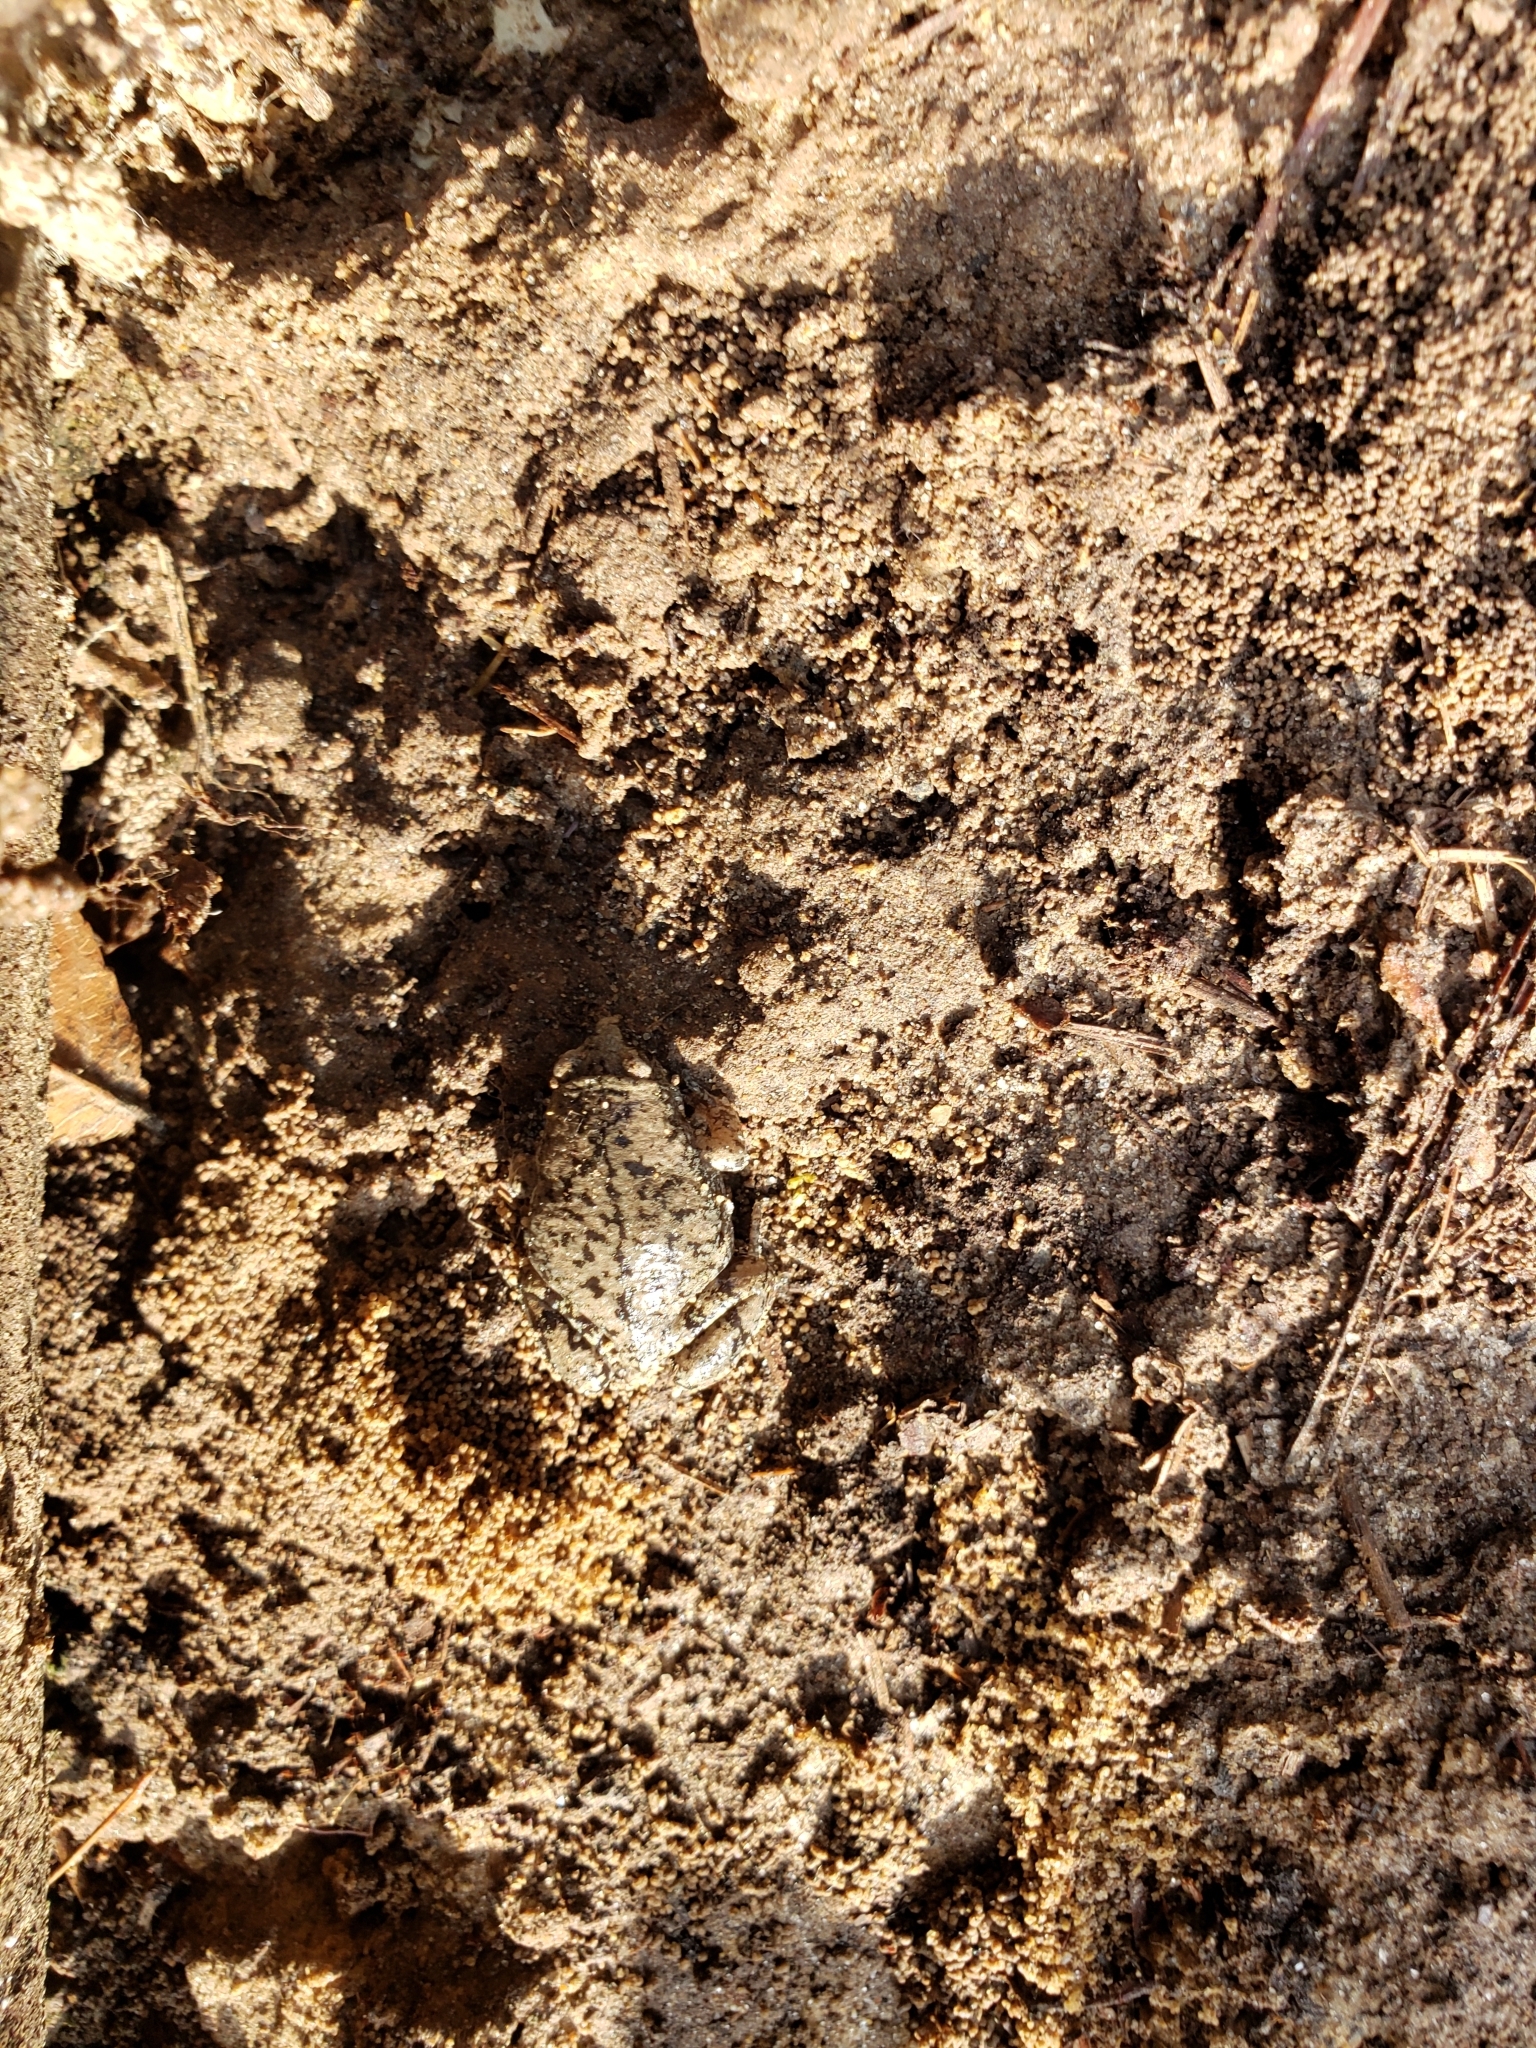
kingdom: Animalia
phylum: Chordata
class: Amphibia
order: Anura
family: Microhylidae
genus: Gastrophryne
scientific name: Gastrophryne carolinensis
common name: Eastern narrowmouth toad
